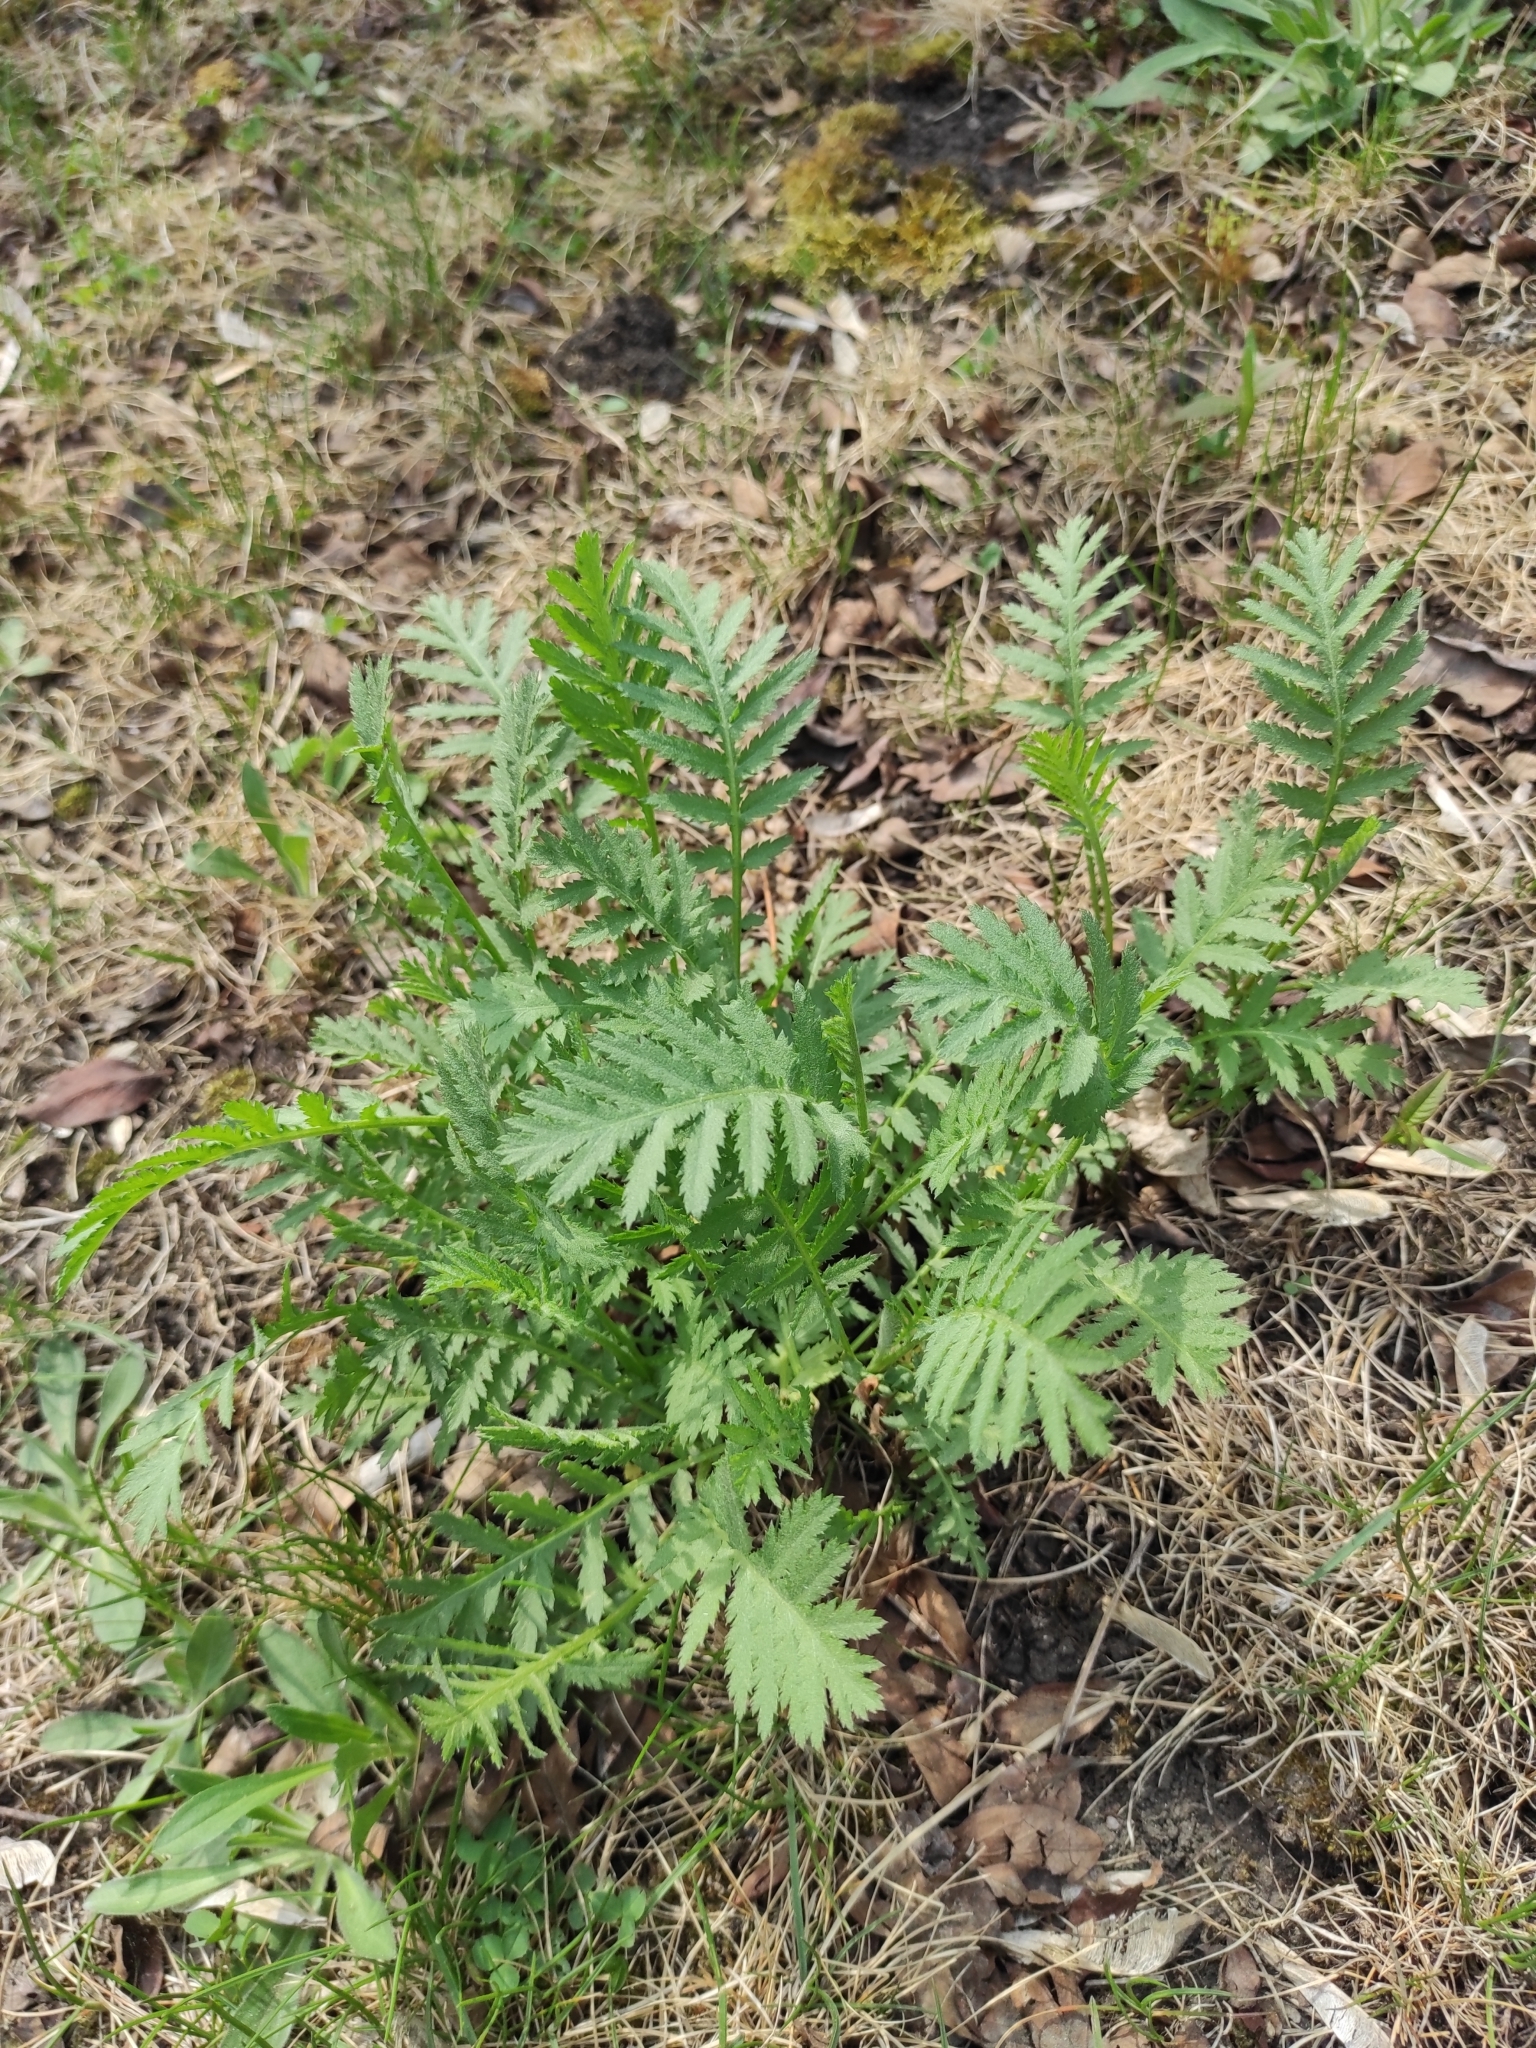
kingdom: Plantae
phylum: Tracheophyta
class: Magnoliopsida
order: Asterales
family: Asteraceae
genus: Tanacetum
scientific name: Tanacetum vulgare
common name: Common tansy
